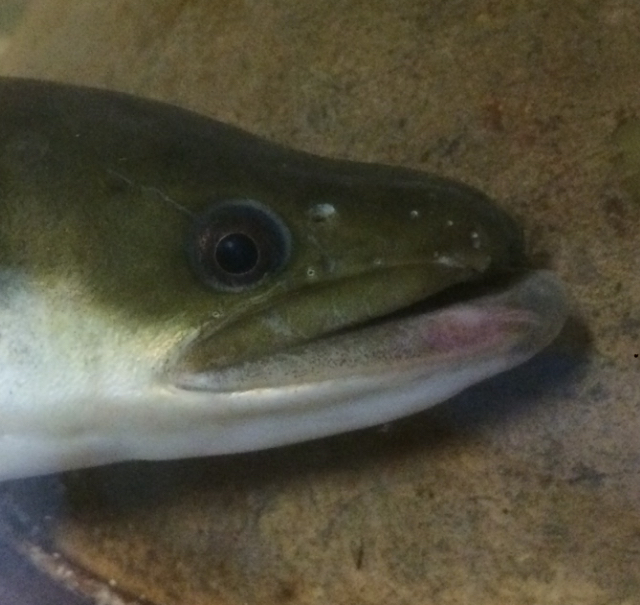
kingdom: Animalia
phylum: Chordata
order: Anguilliformes
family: Anguillidae
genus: Anguilla
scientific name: Anguilla rostrata
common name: American eel
